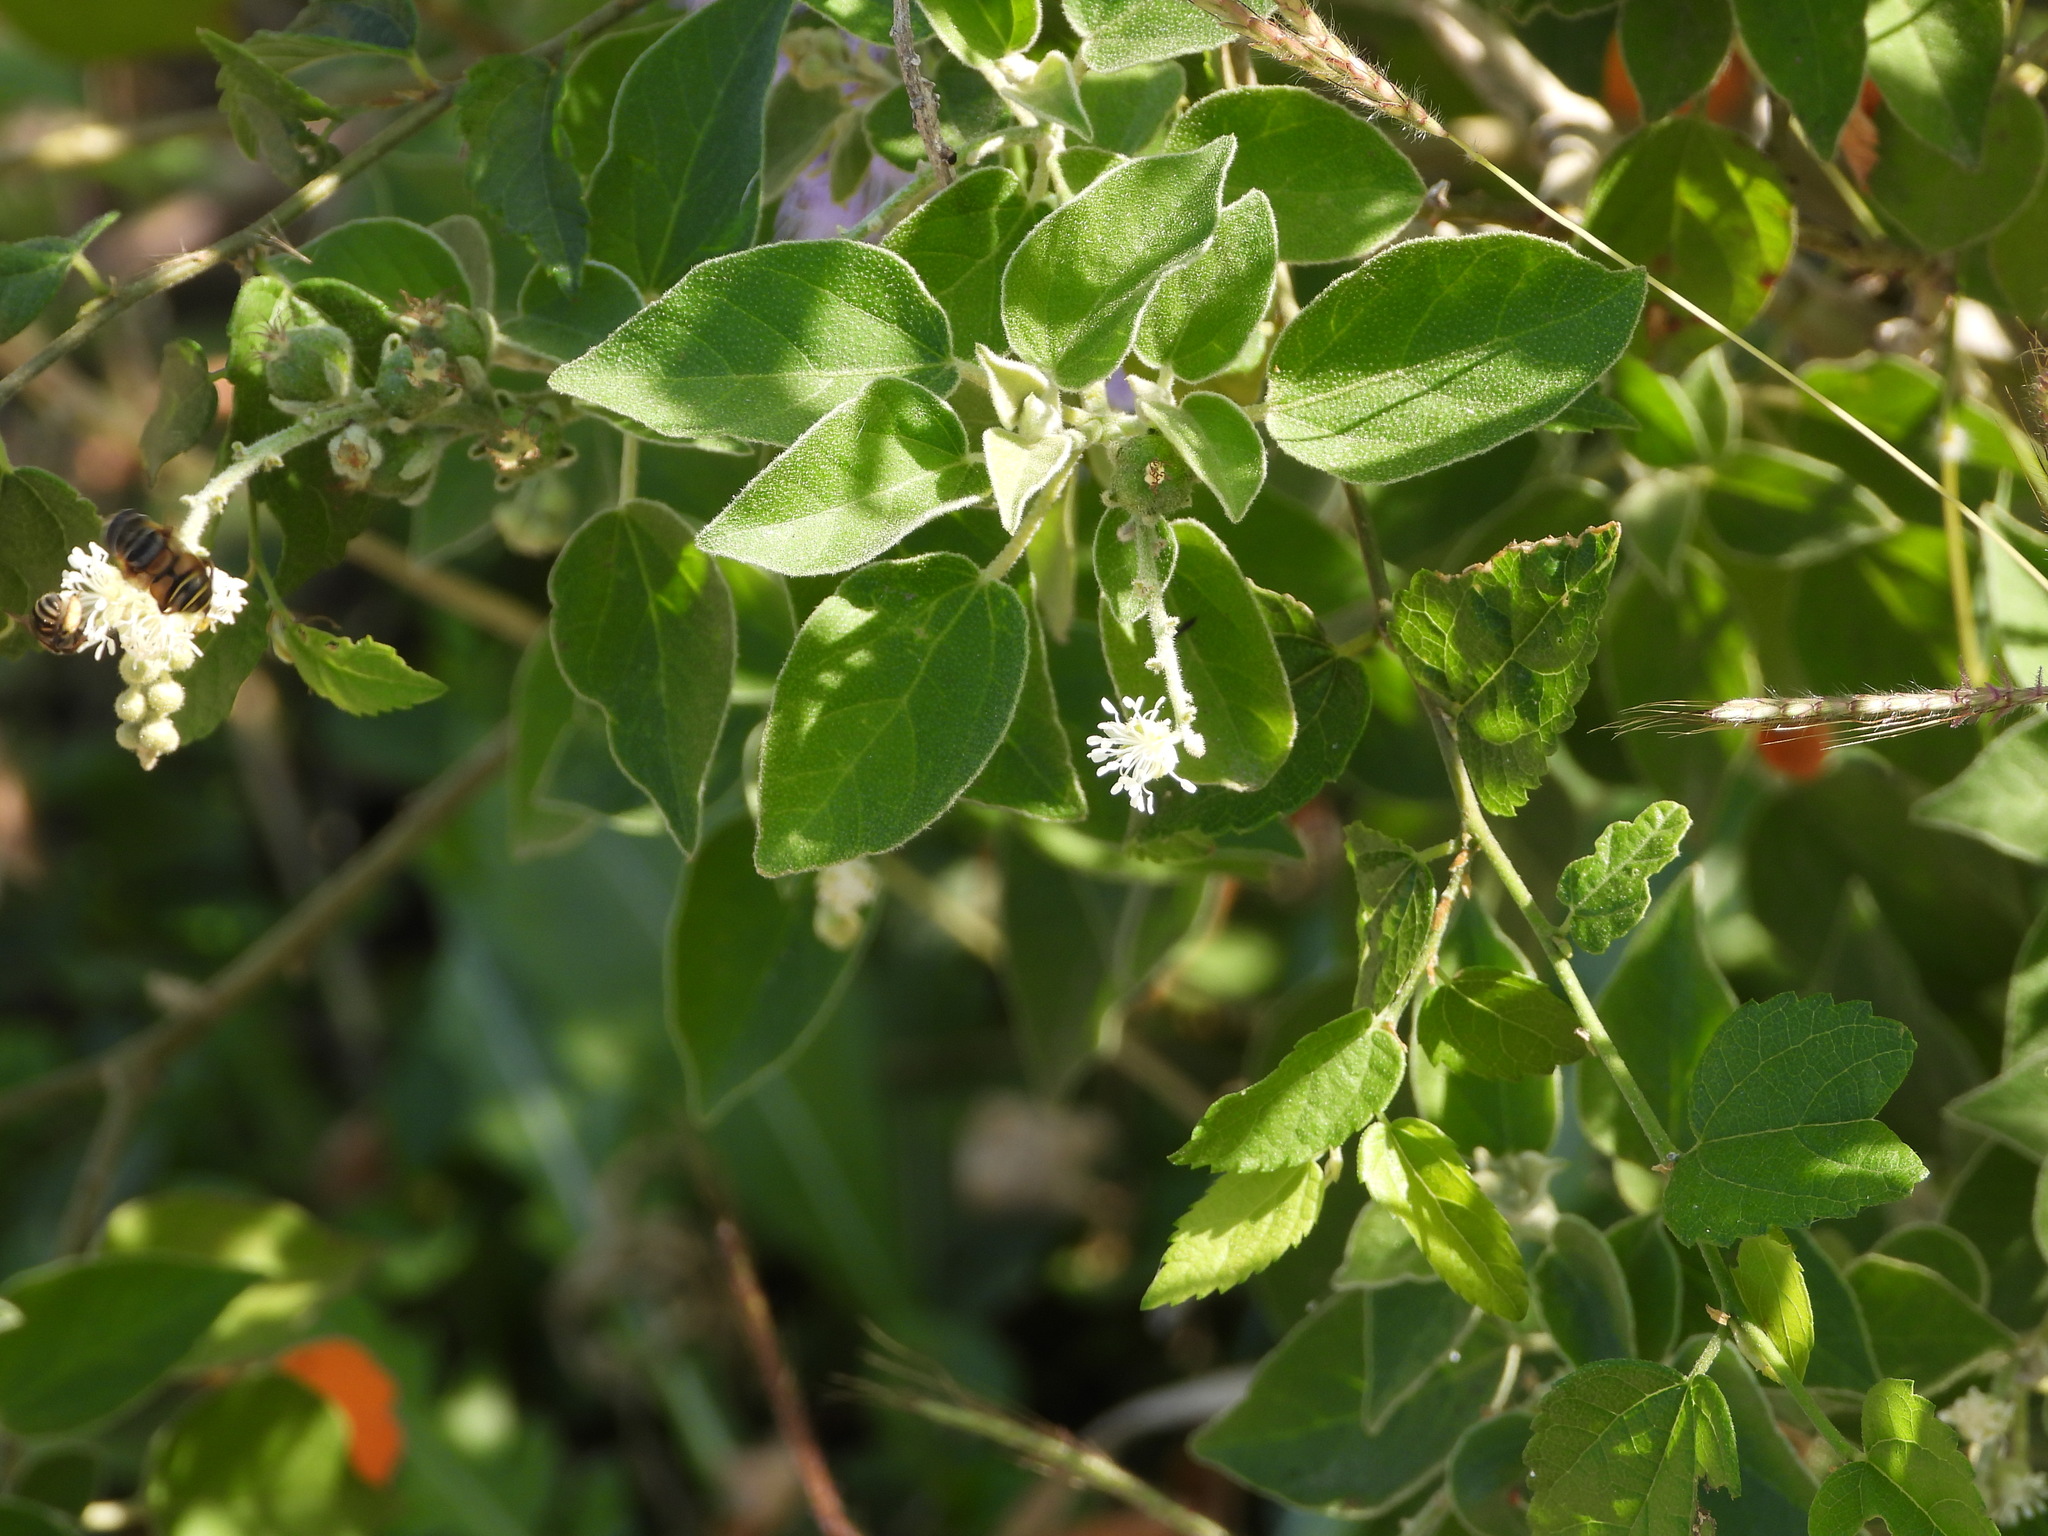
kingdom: Animalia
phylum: Arthropoda
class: Insecta
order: Diptera
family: Syrphidae
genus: Palpada
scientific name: Palpada vinetorum
